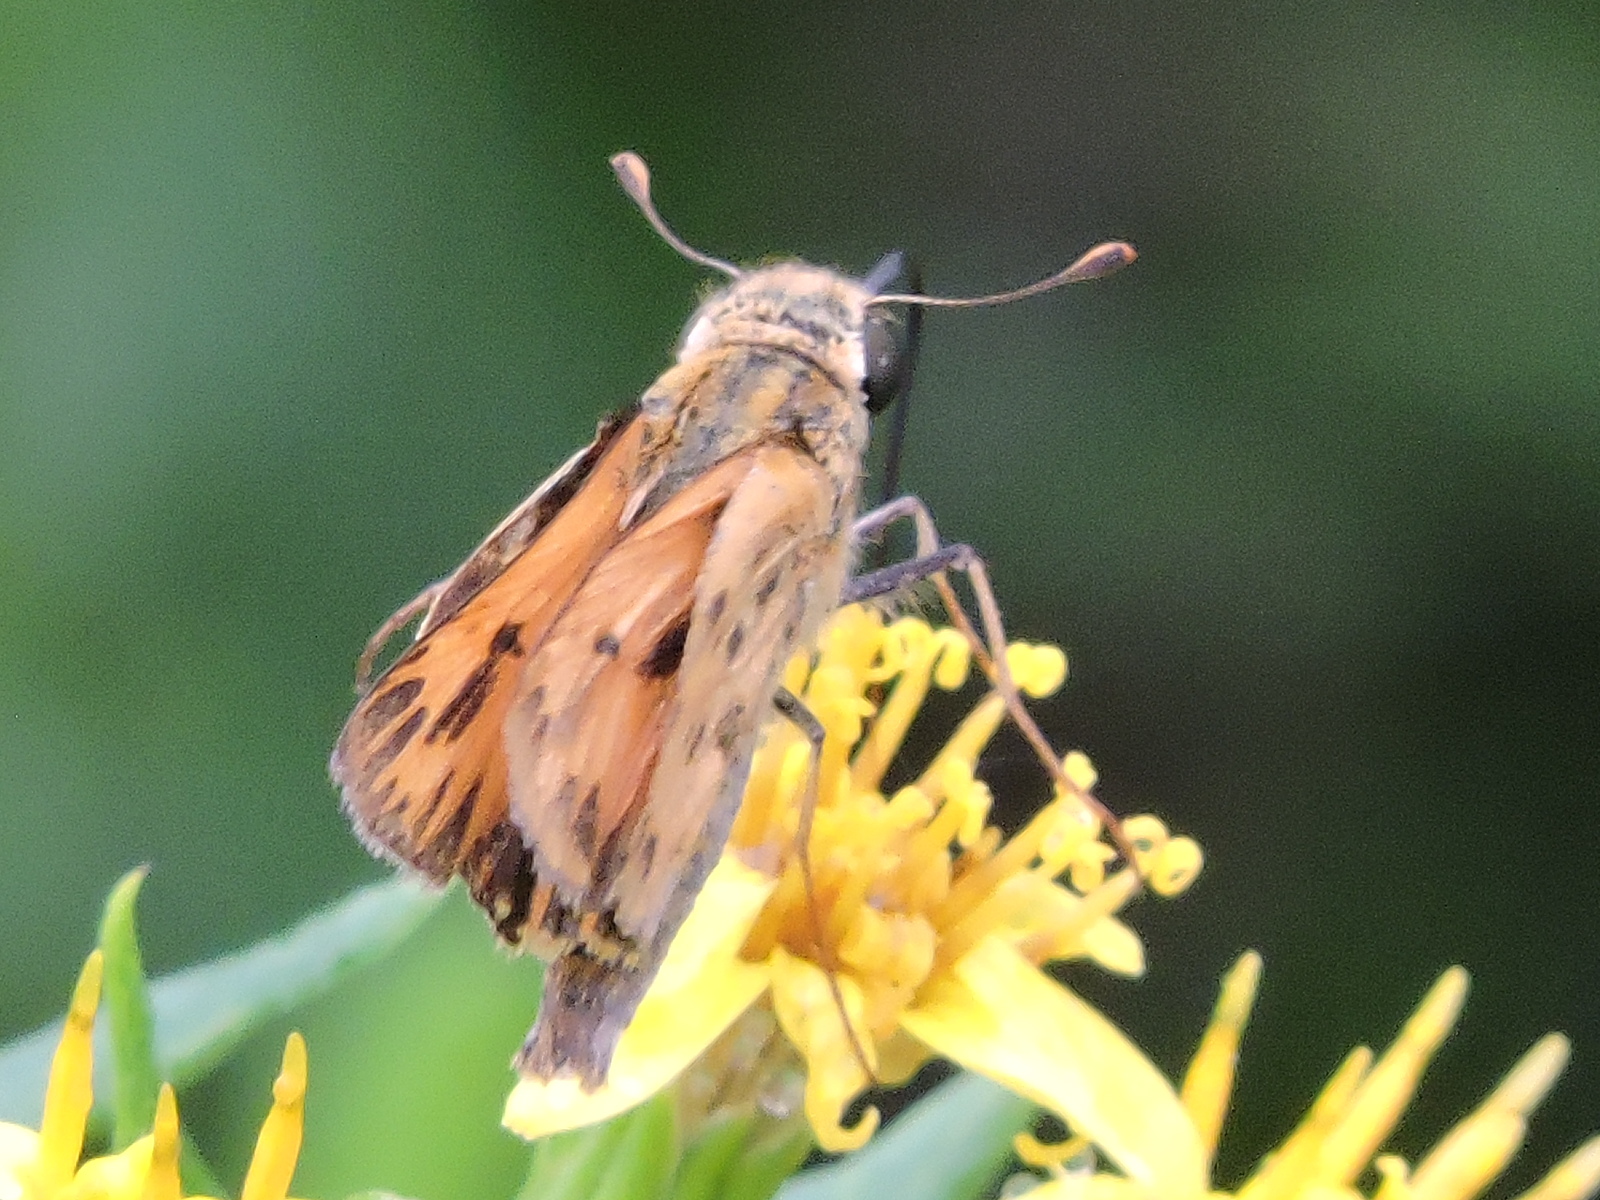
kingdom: Animalia
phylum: Arthropoda
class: Insecta
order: Lepidoptera
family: Hesperiidae
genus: Hylephila
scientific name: Hylephila phyleus
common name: Fiery skipper
